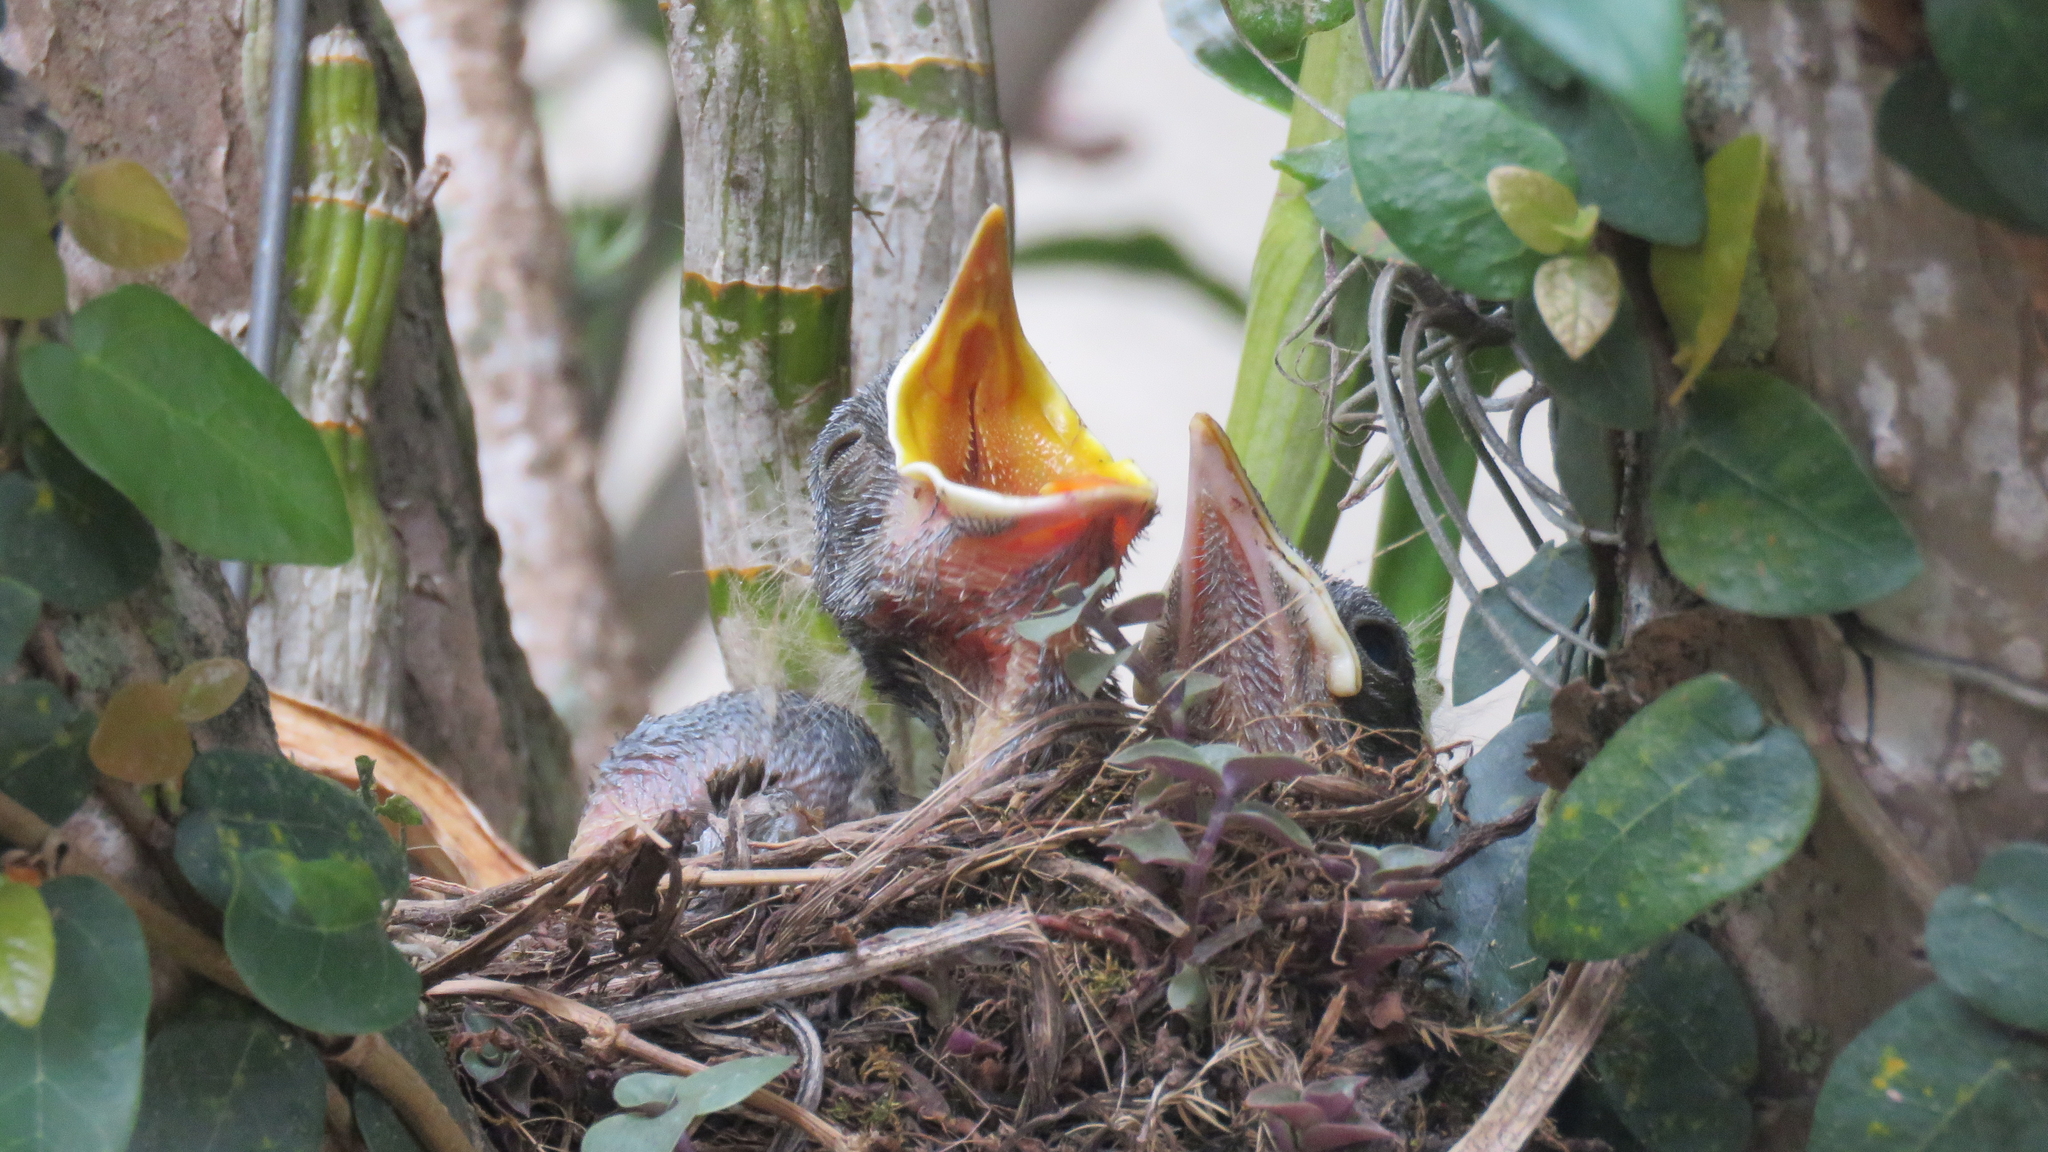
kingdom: Animalia
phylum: Chordata
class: Aves
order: Passeriformes
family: Turdidae
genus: Turdus
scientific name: Turdus rufiventris
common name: Rufous-bellied thrush
